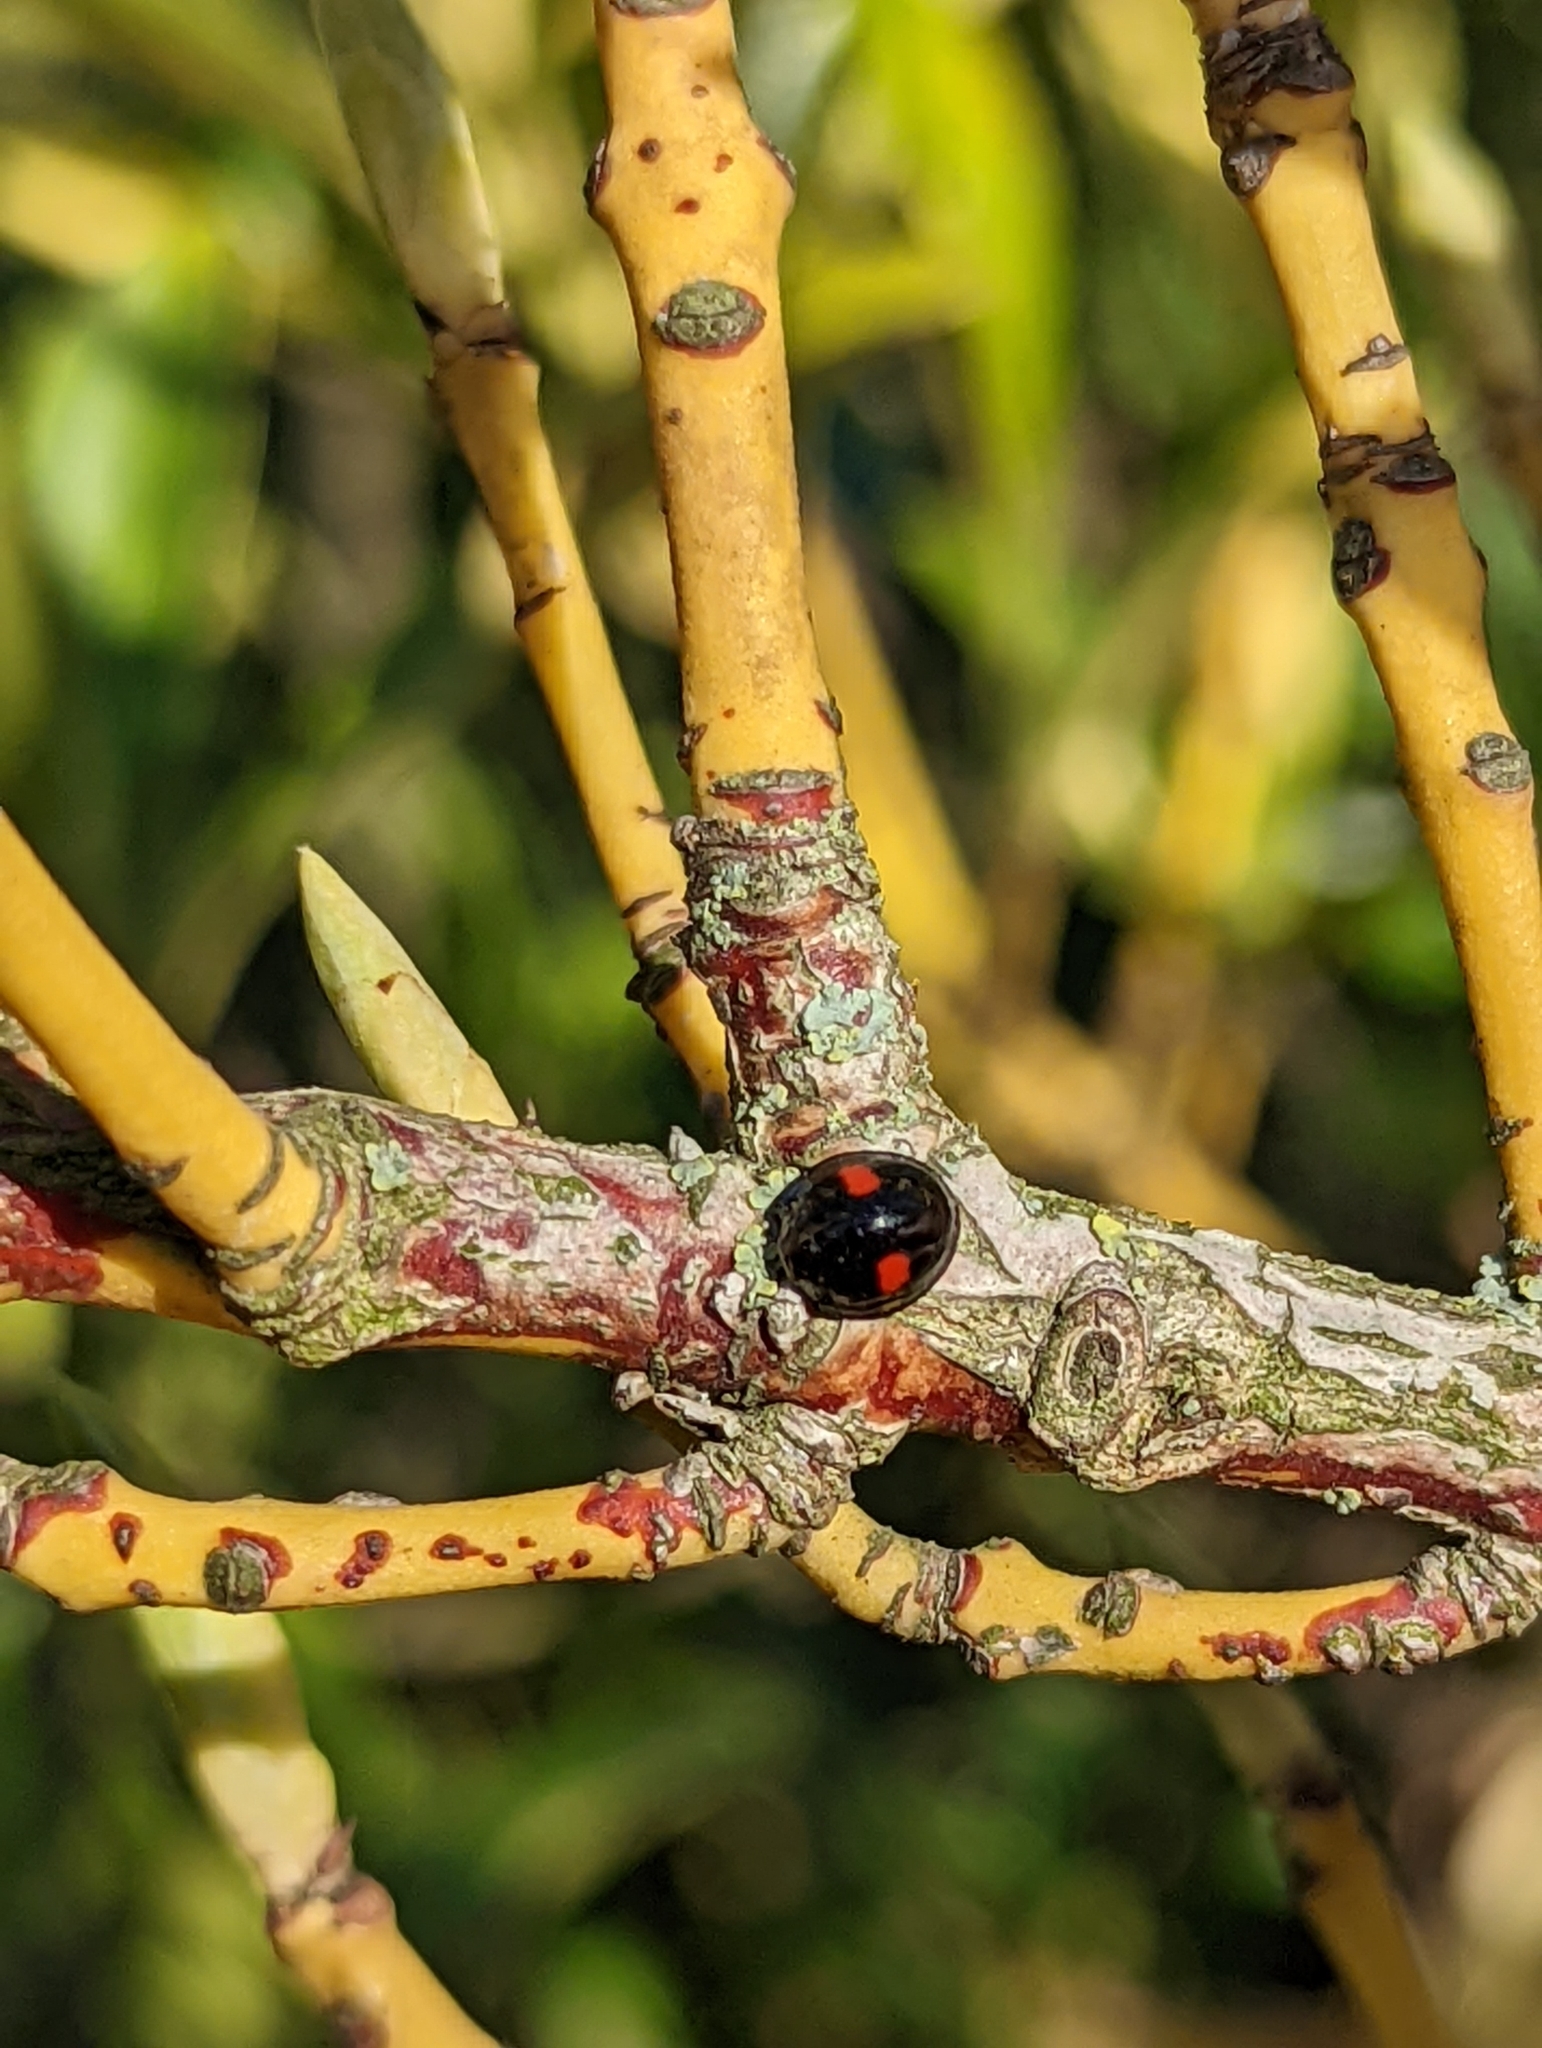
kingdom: Animalia
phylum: Arthropoda
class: Insecta
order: Coleoptera
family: Coccinellidae
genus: Chilocorus
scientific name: Chilocorus renipustulatus
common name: Kidney-spot ladybird
